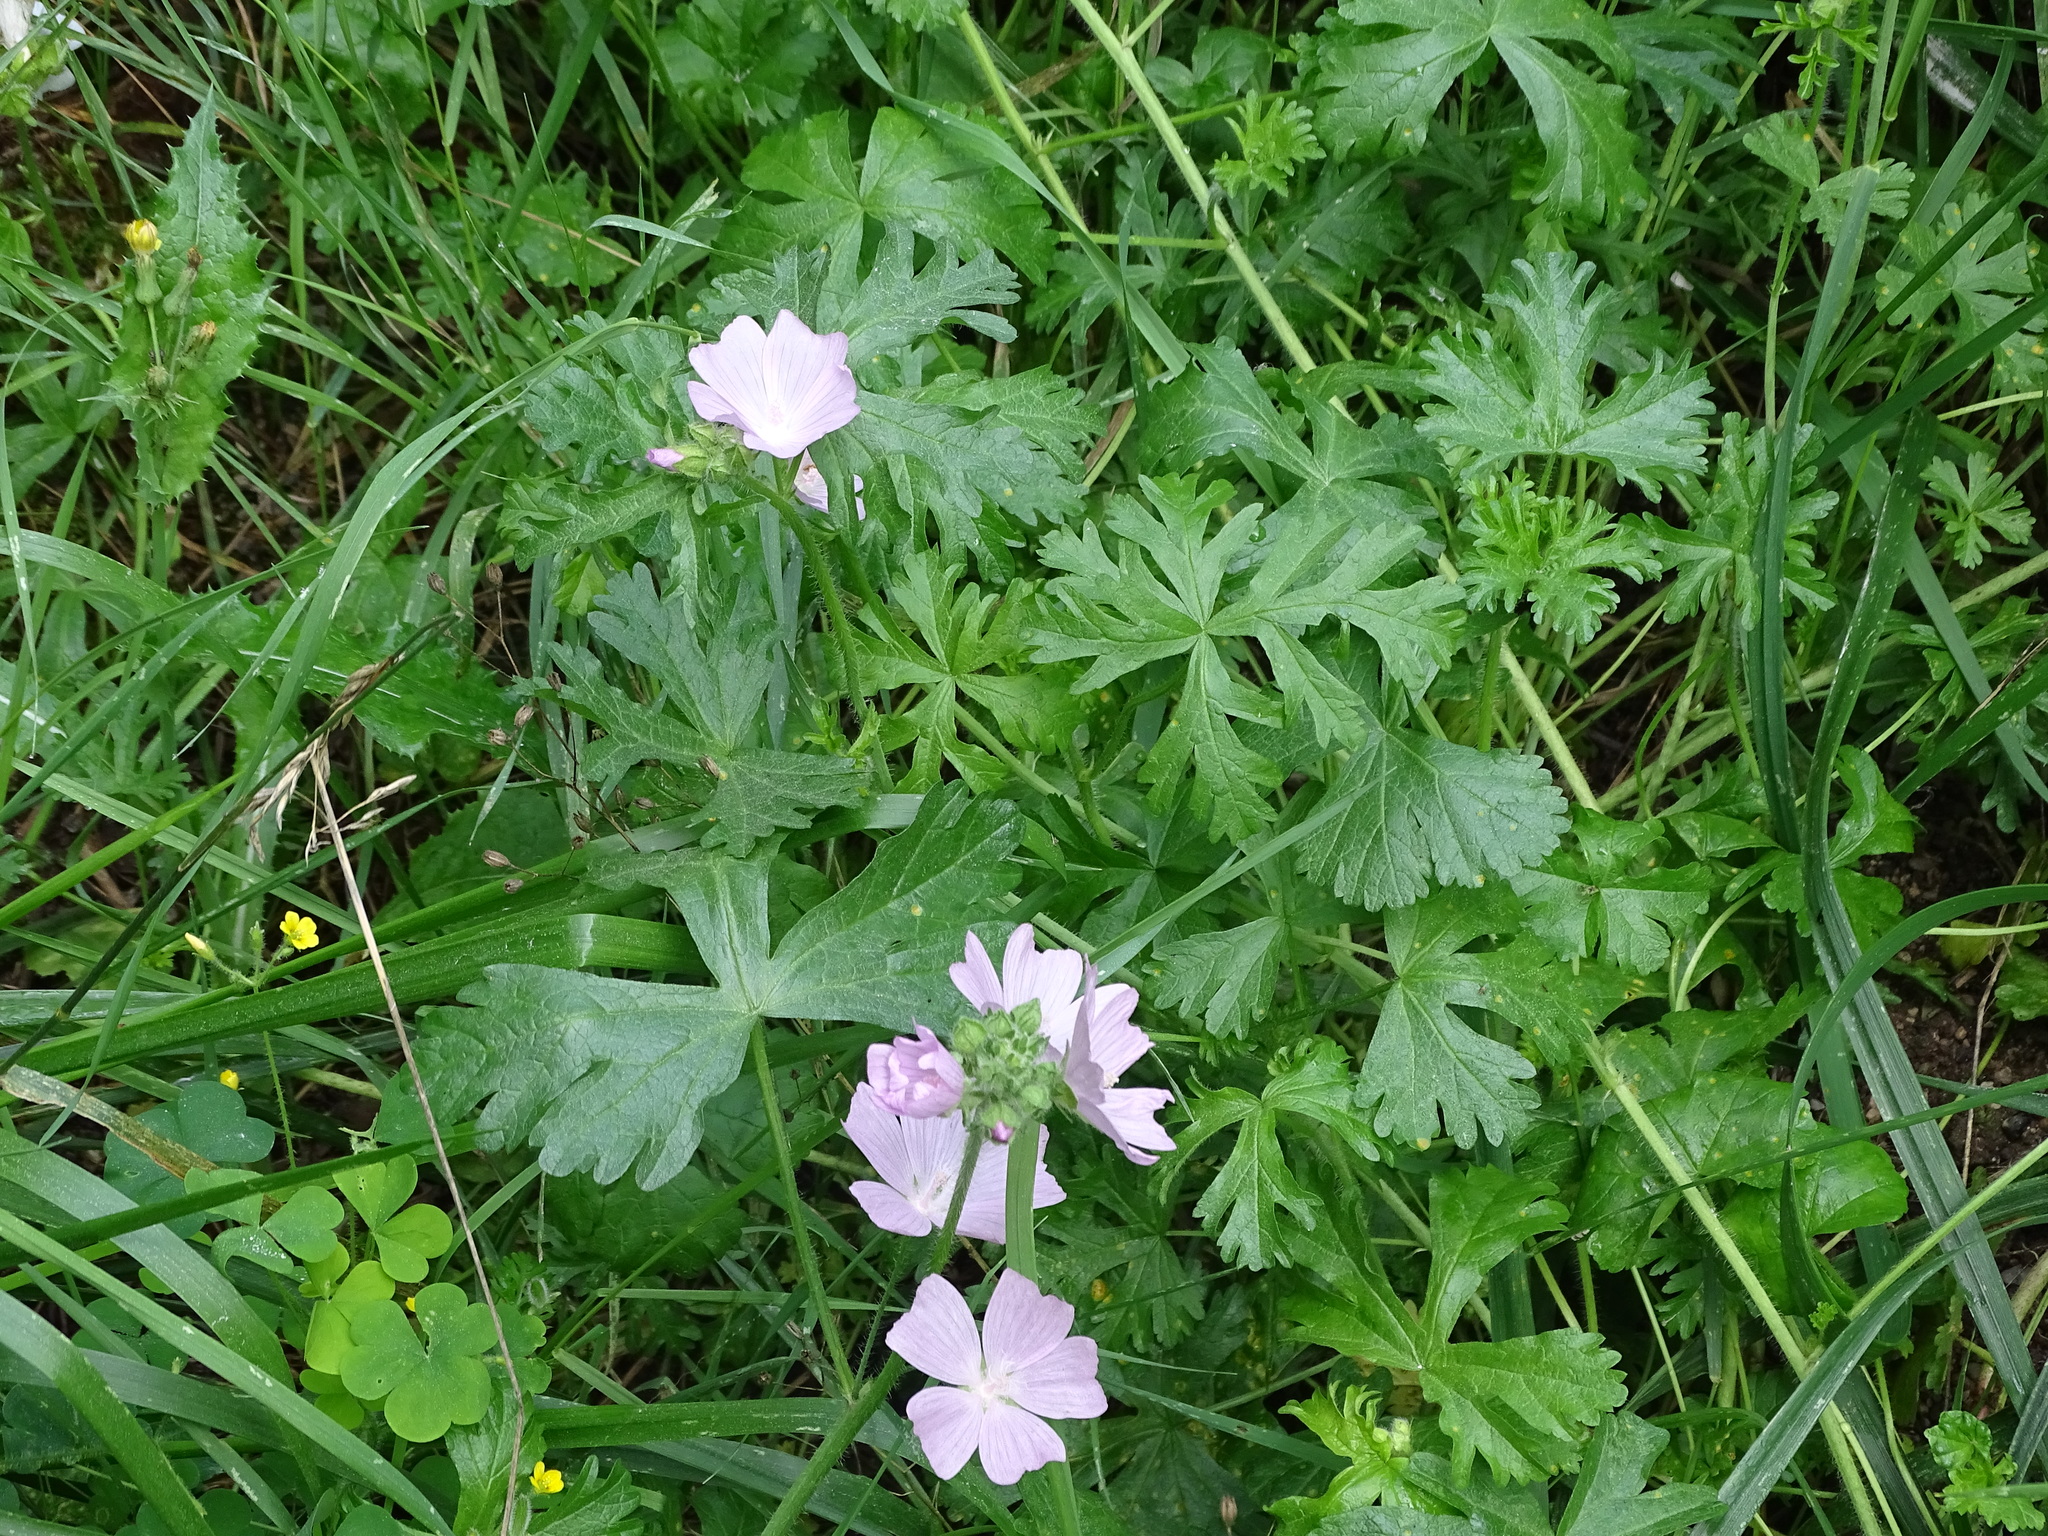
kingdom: Plantae
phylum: Tracheophyta
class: Magnoliopsida
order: Malvales
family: Malvaceae
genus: Malva
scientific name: Malva moschata
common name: Musk mallow
